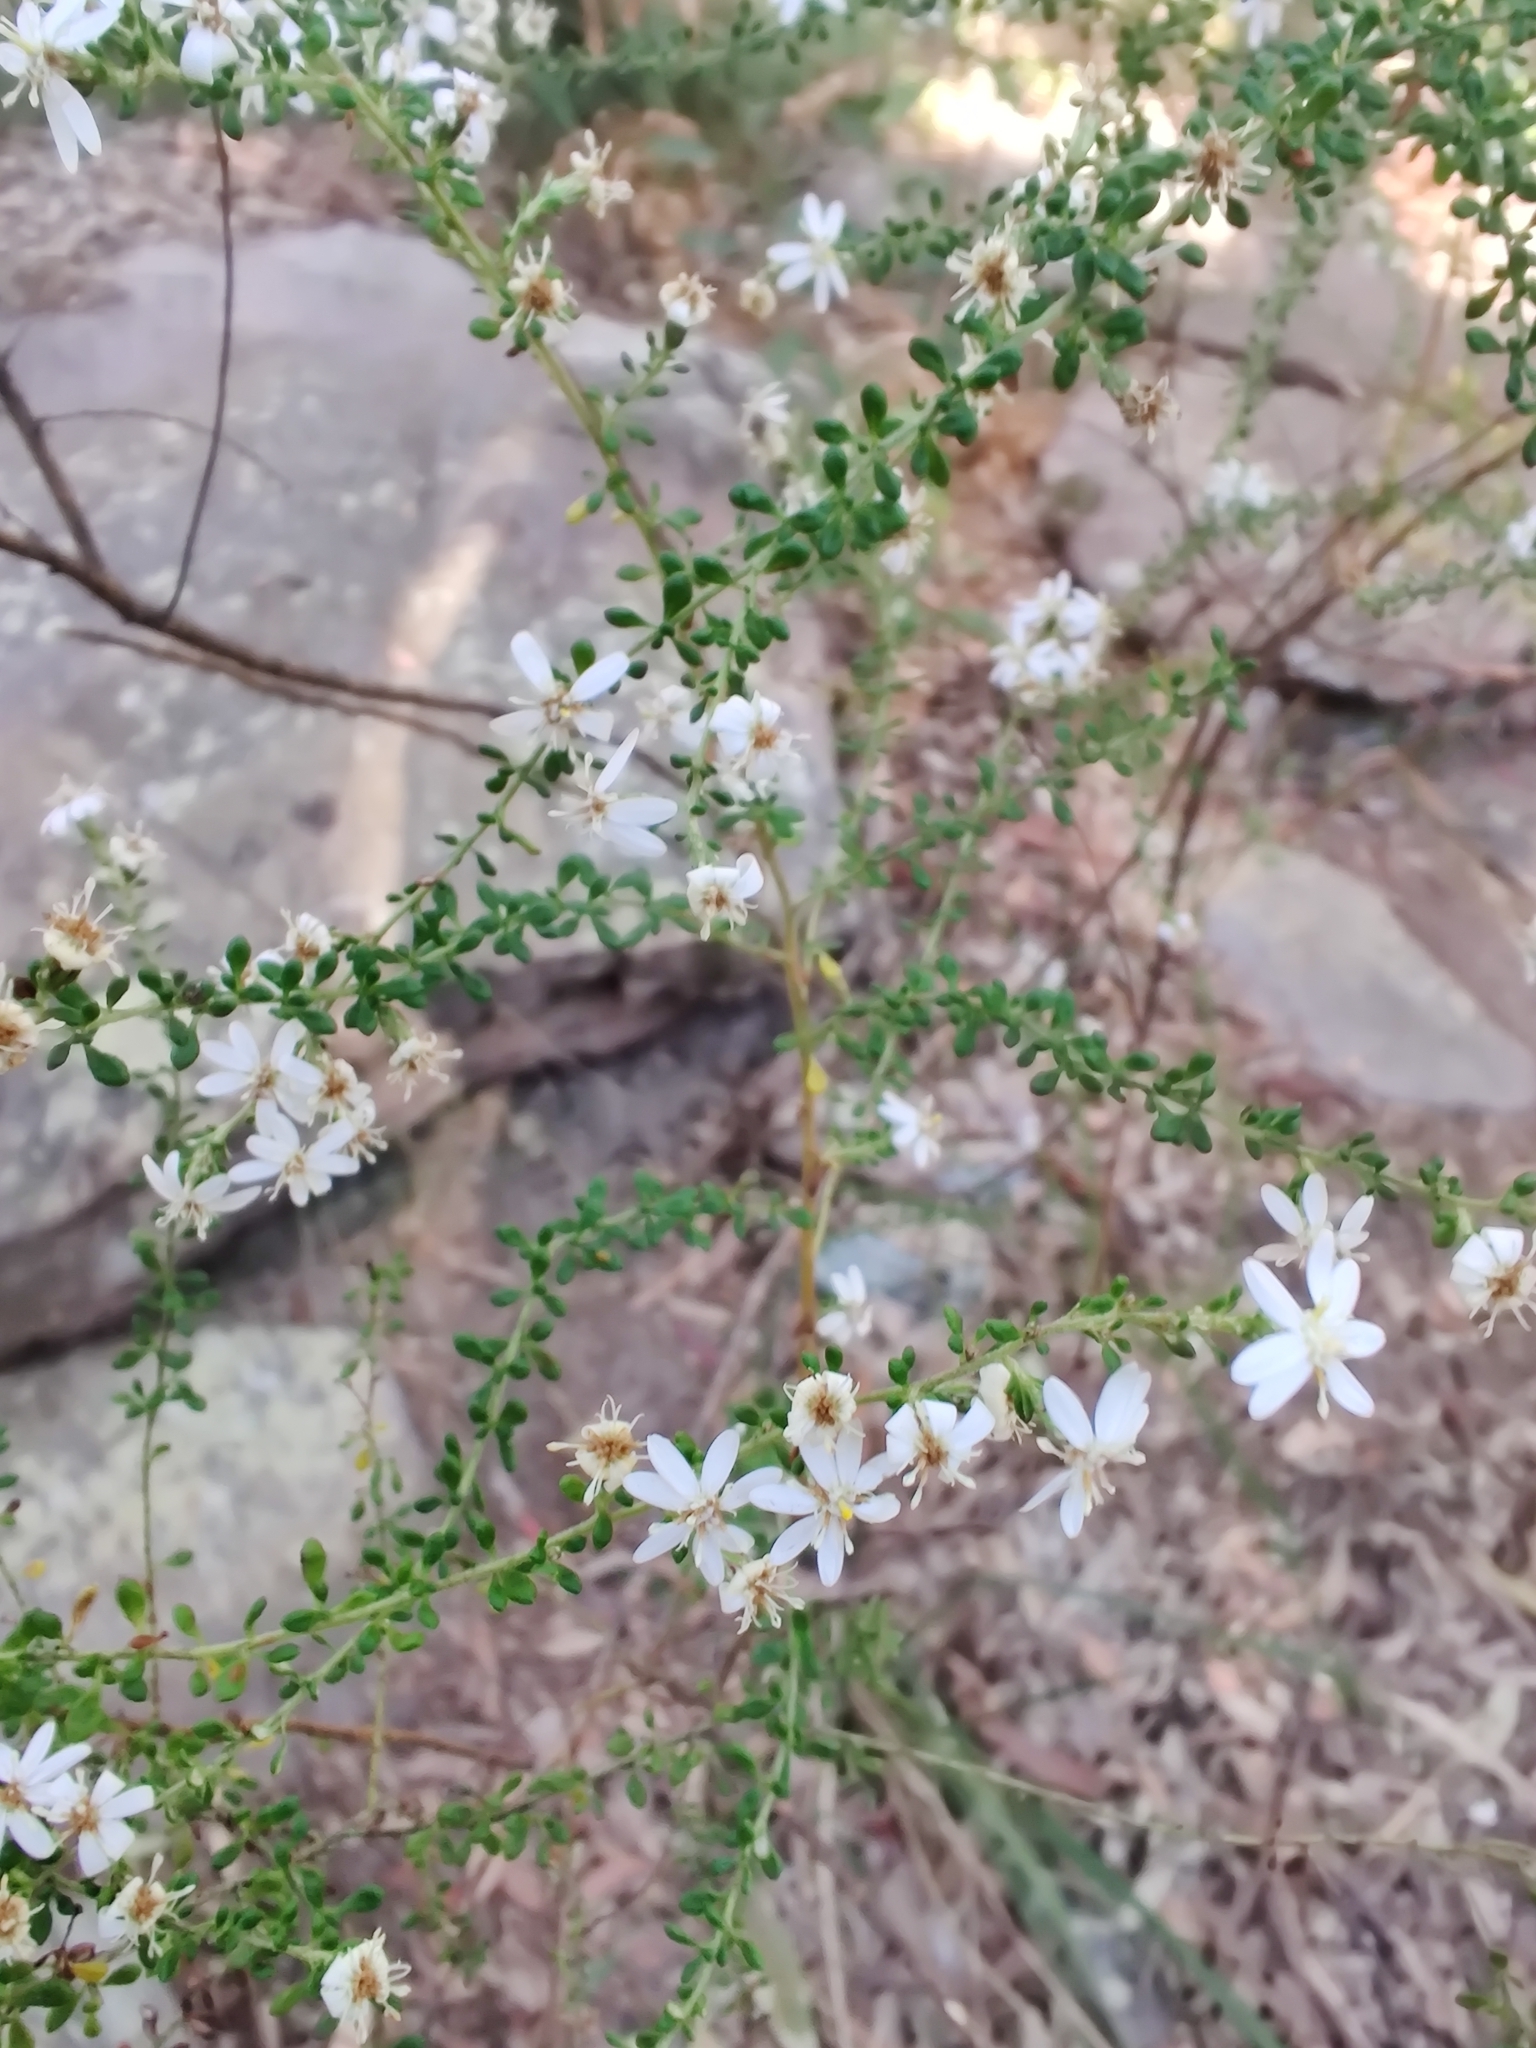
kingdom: Plantae
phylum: Tracheophyta
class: Magnoliopsida
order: Asterales
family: Asteraceae
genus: Olearia
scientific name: Olearia microphylla
